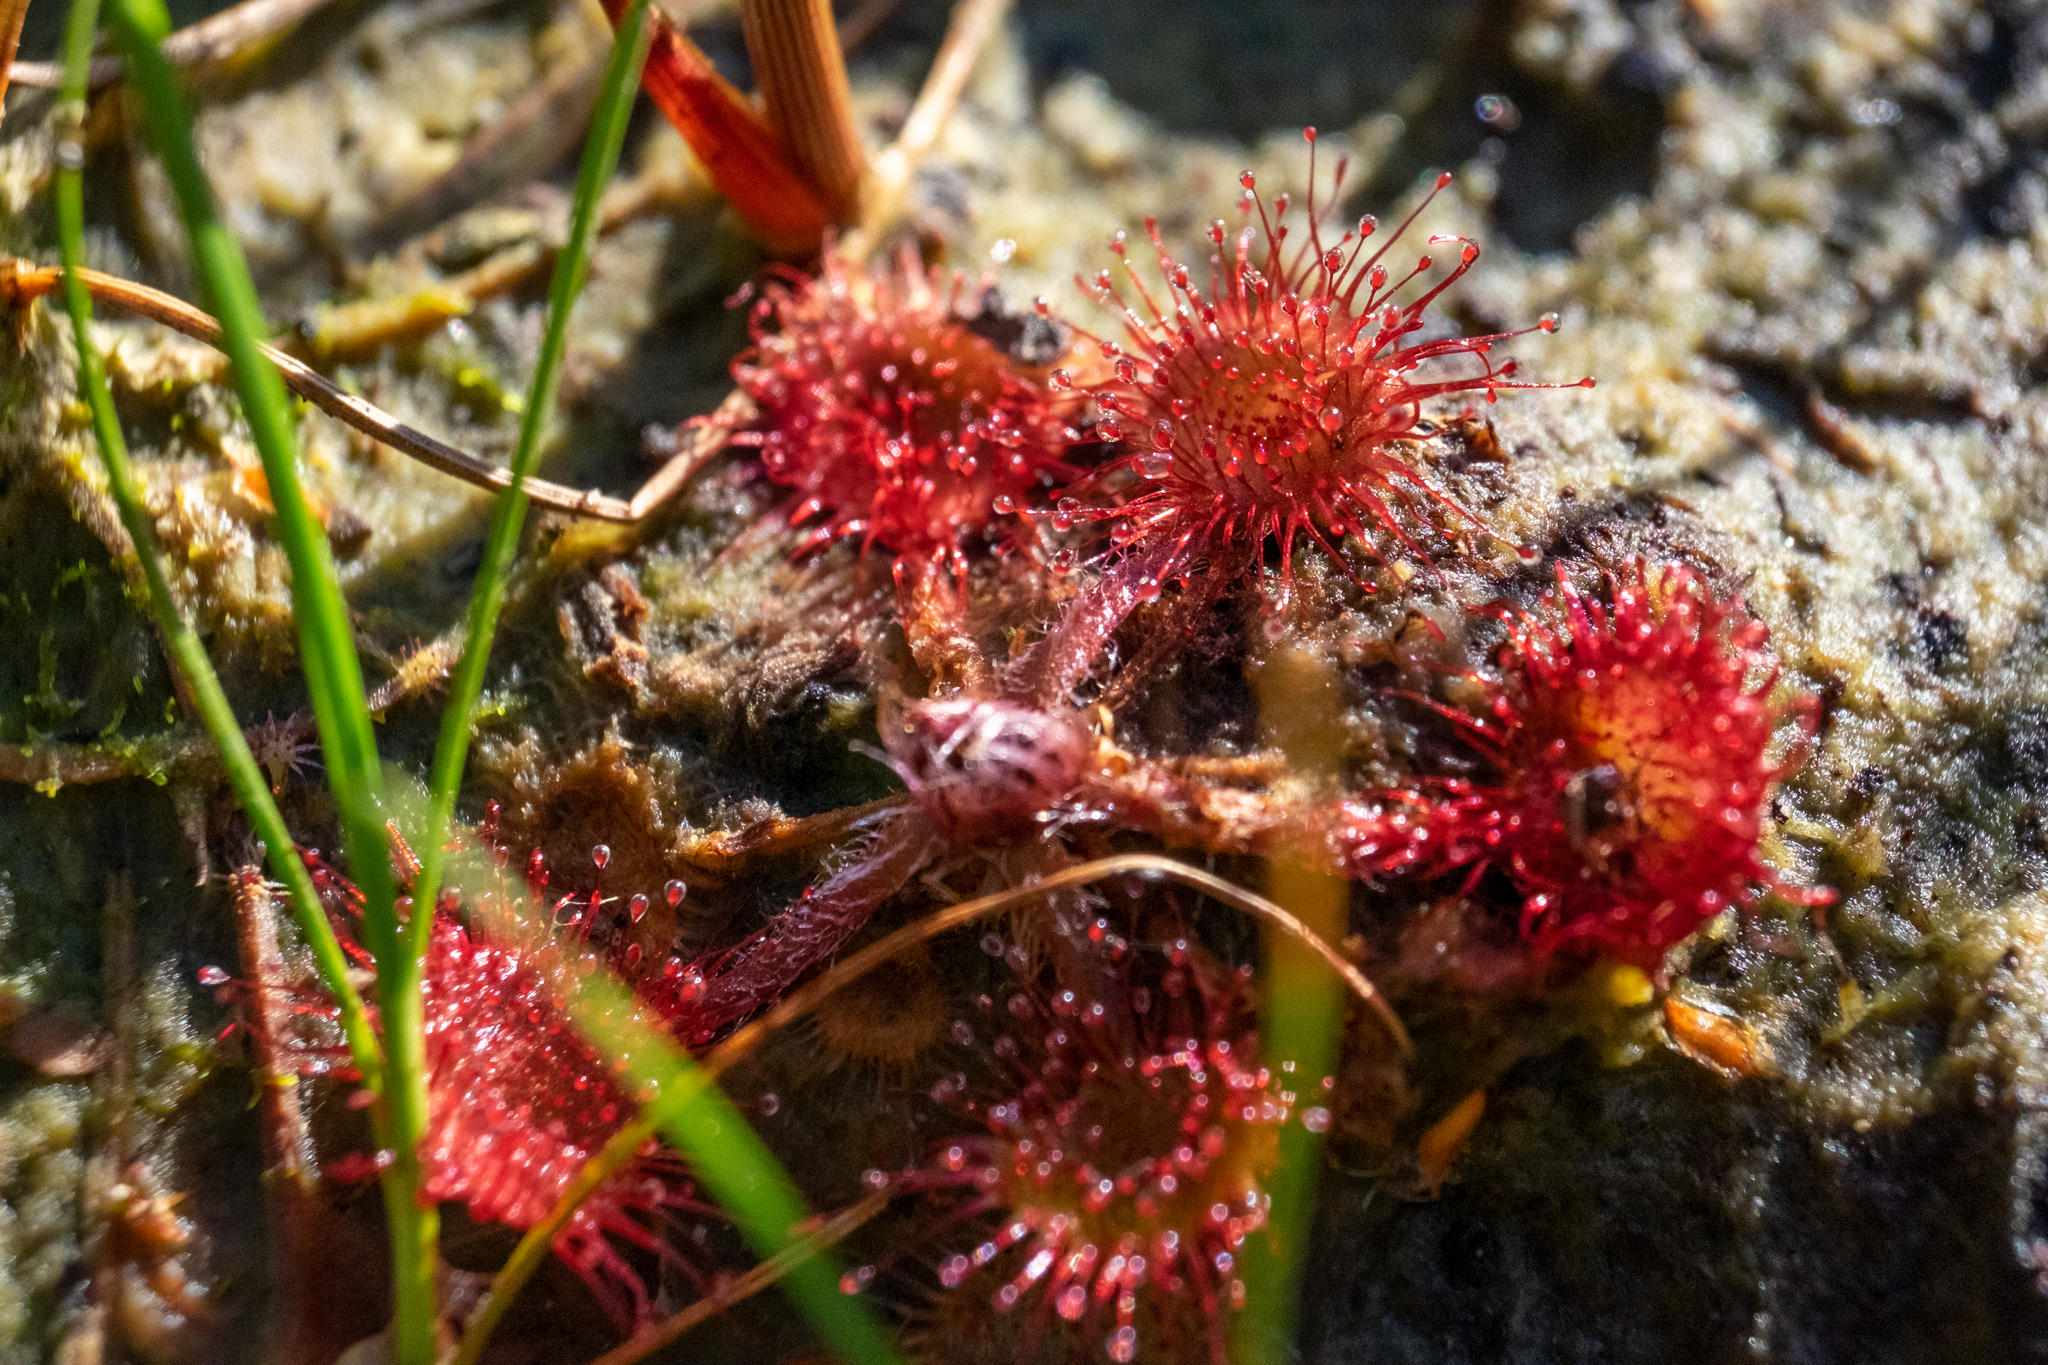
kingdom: Plantae
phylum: Tracheophyta
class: Magnoliopsida
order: Caryophyllales
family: Droseraceae
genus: Drosera
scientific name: Drosera rotundifolia
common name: Round-leaved sundew
